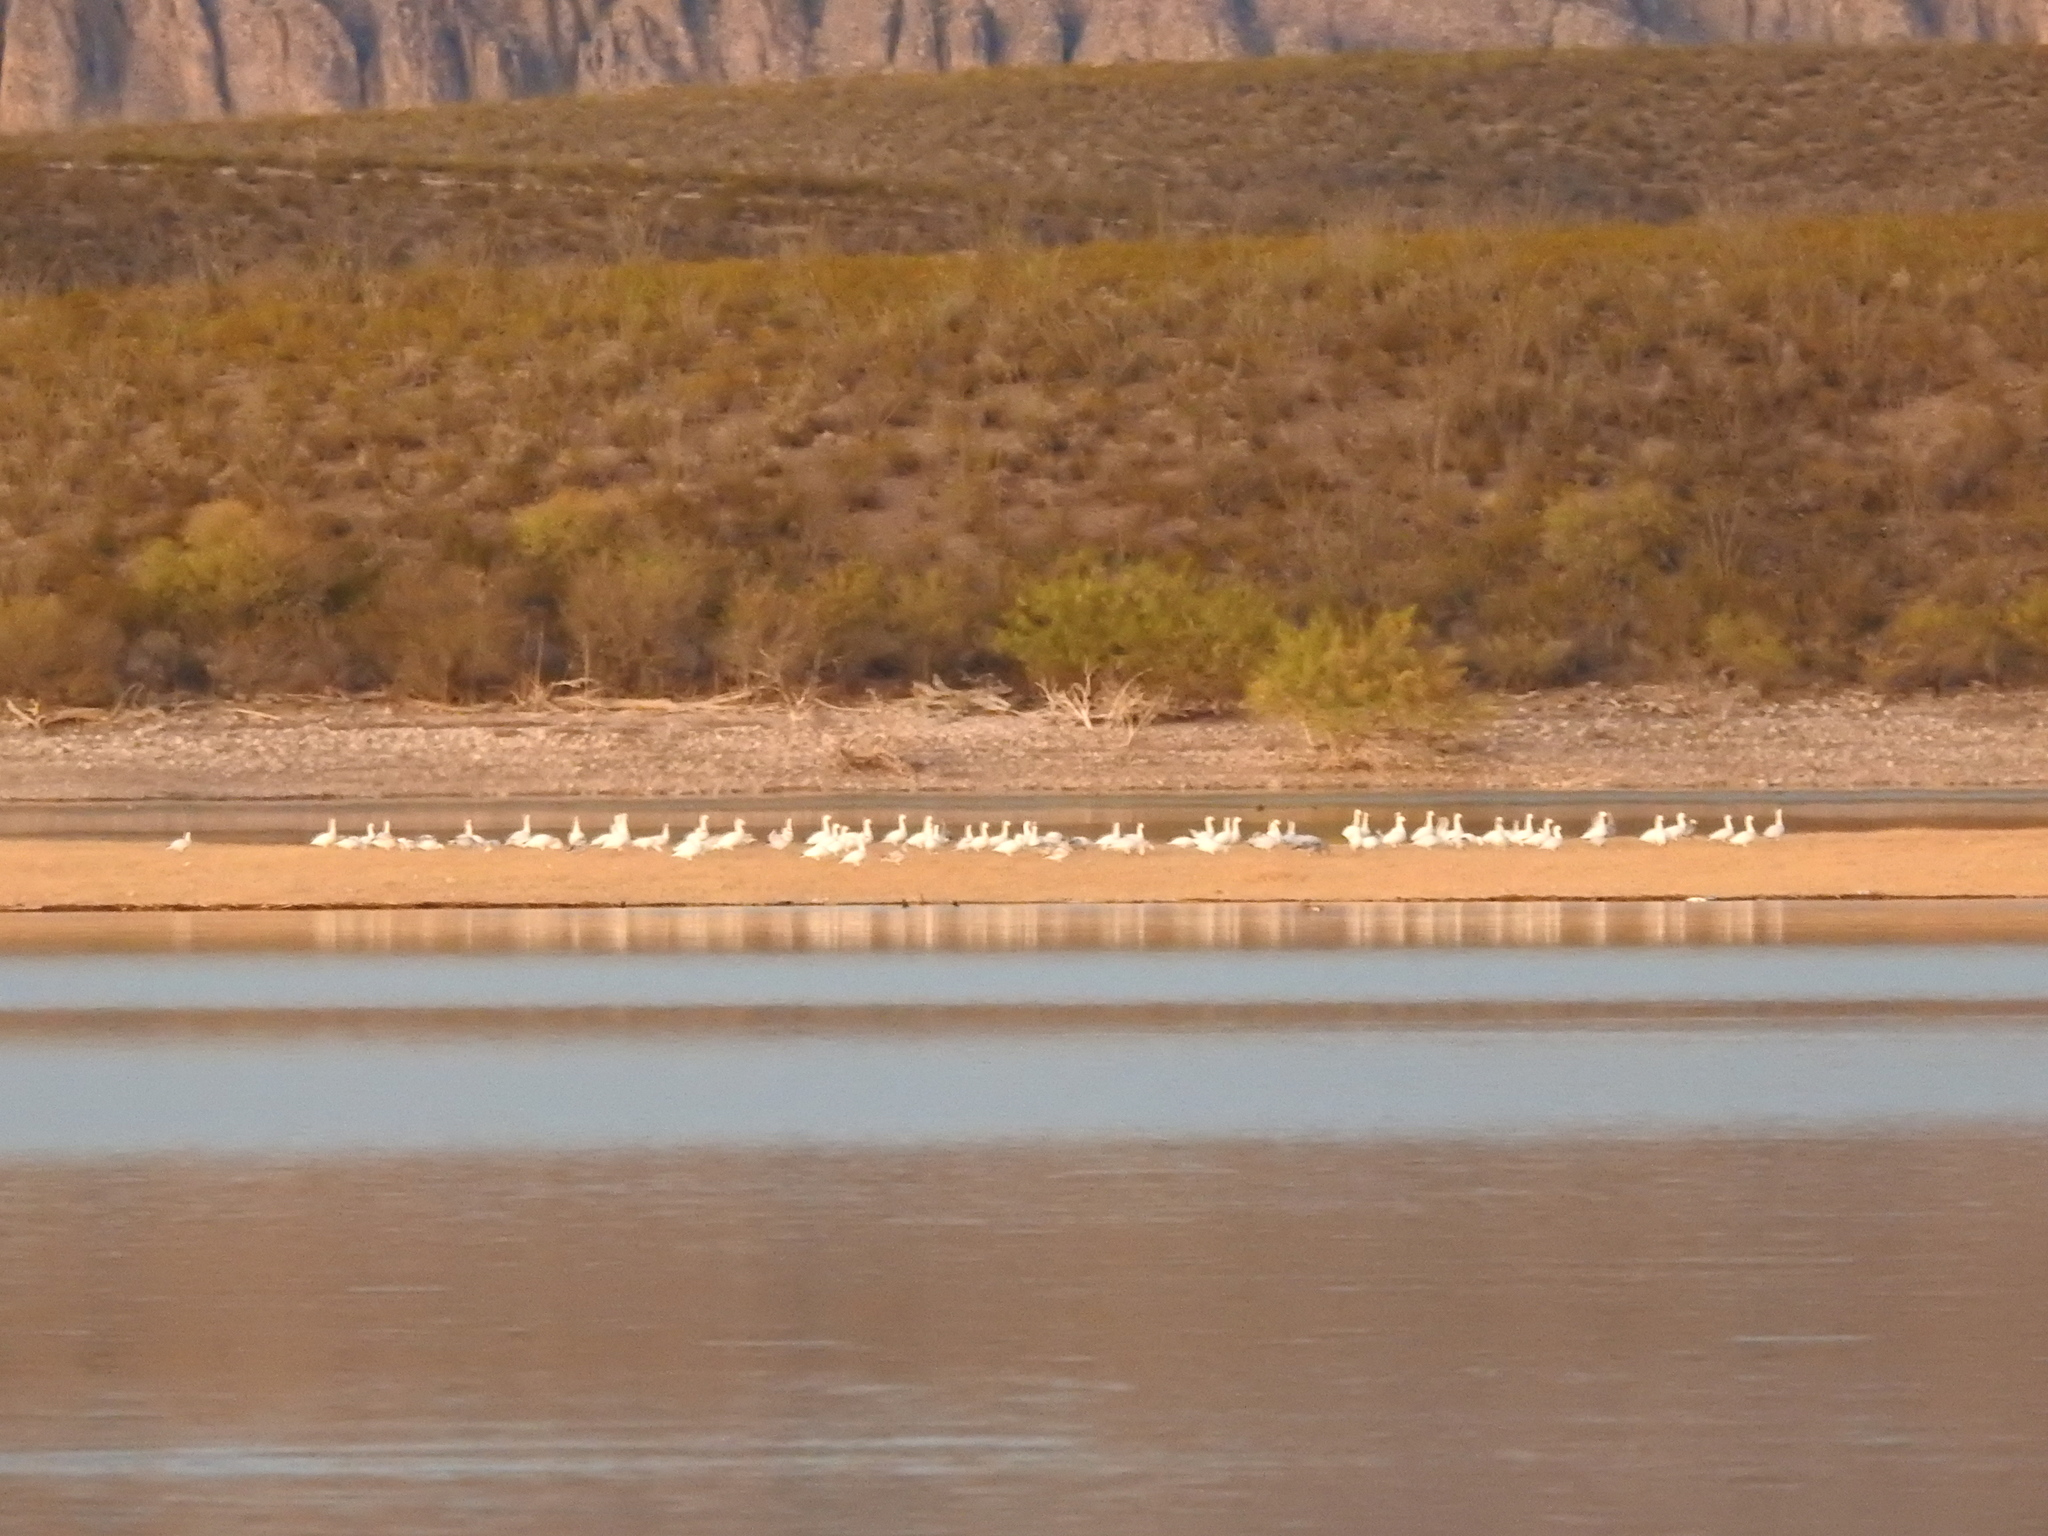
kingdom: Animalia
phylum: Chordata
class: Aves
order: Anseriformes
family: Anatidae
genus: Anser
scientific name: Anser caerulescens
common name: Snow goose
